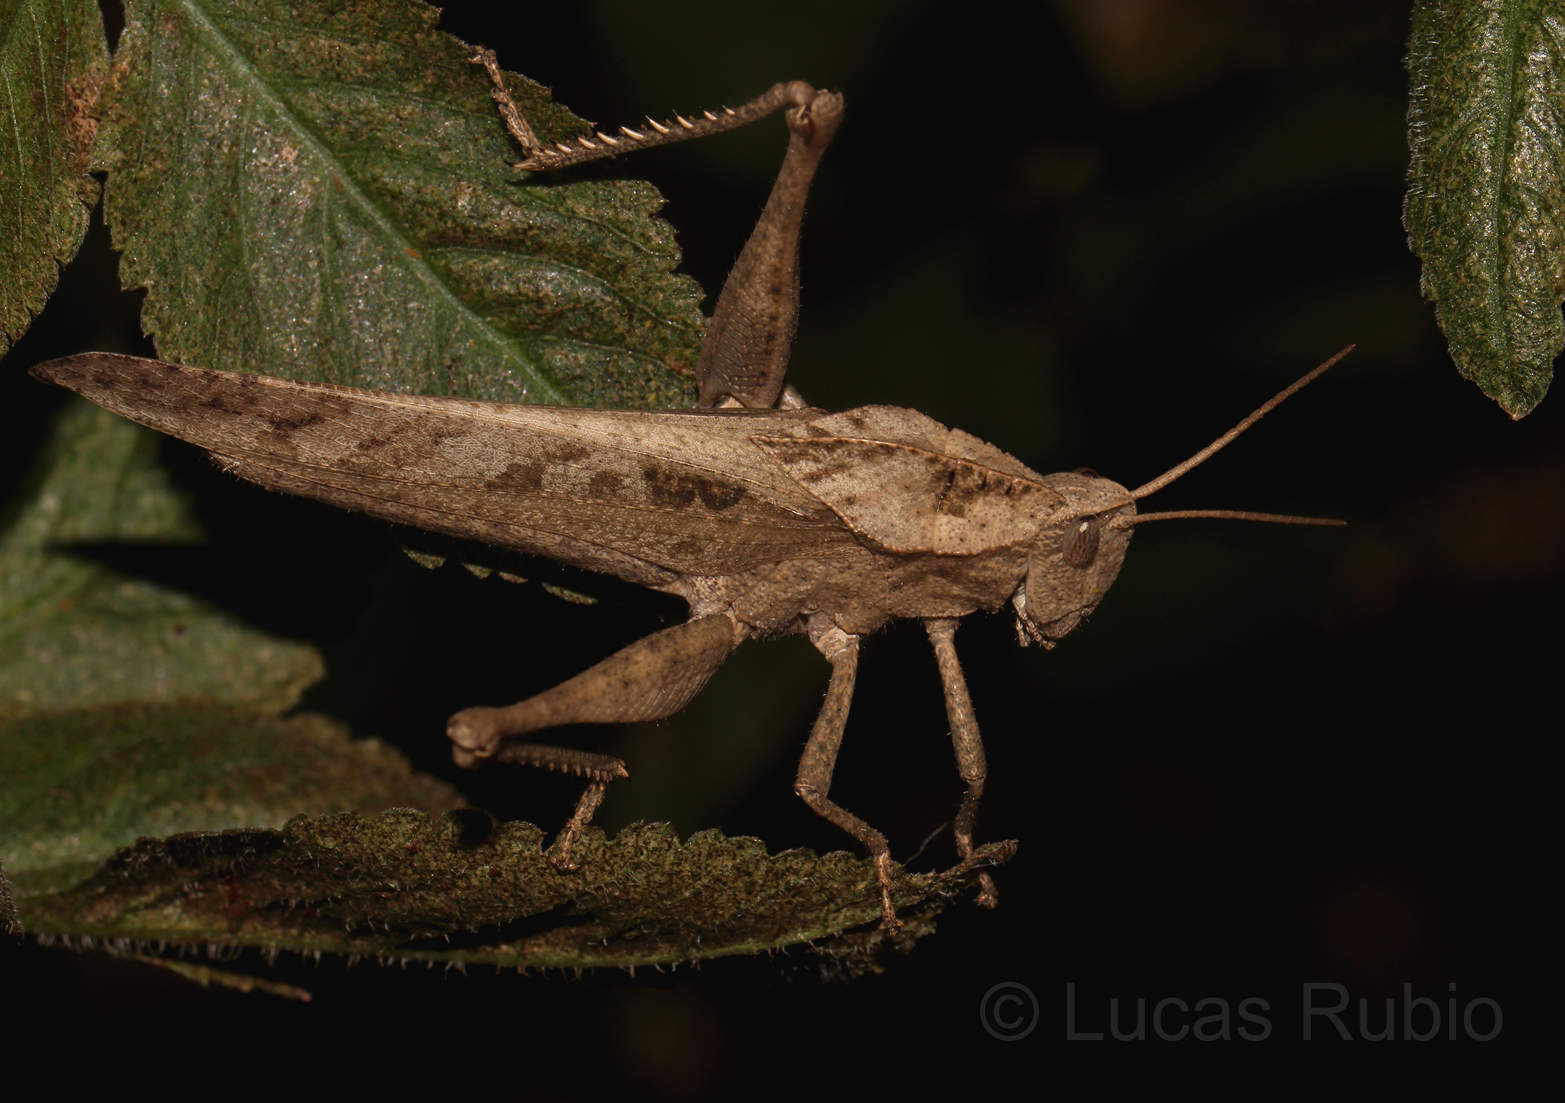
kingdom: Animalia
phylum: Arthropoda
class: Insecta
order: Orthoptera
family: Romaleidae
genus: Xyleus
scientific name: Xyleus discoideus
